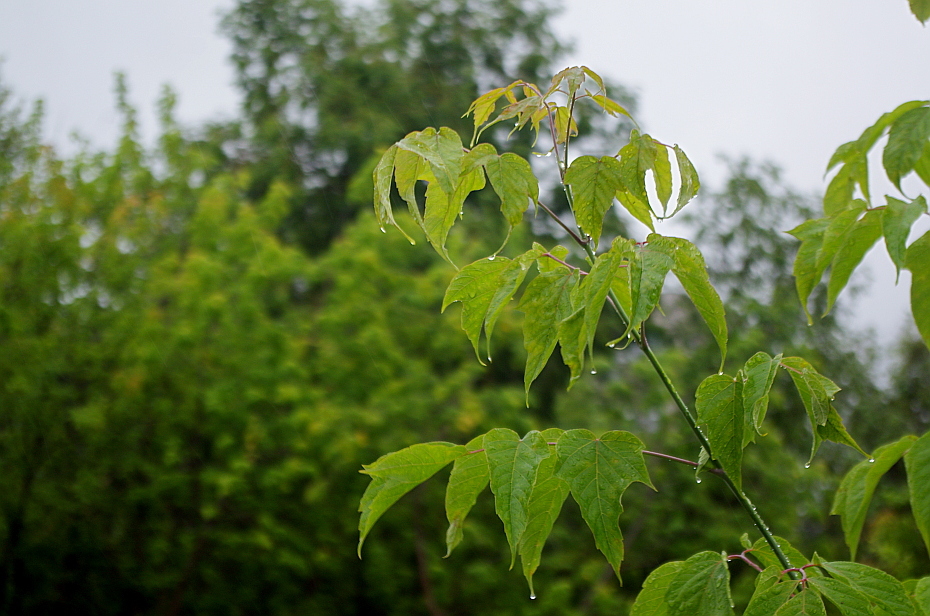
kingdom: Plantae
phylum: Tracheophyta
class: Magnoliopsida
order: Sapindales
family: Sapindaceae
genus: Acer
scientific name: Acer negundo
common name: Ashleaf maple
